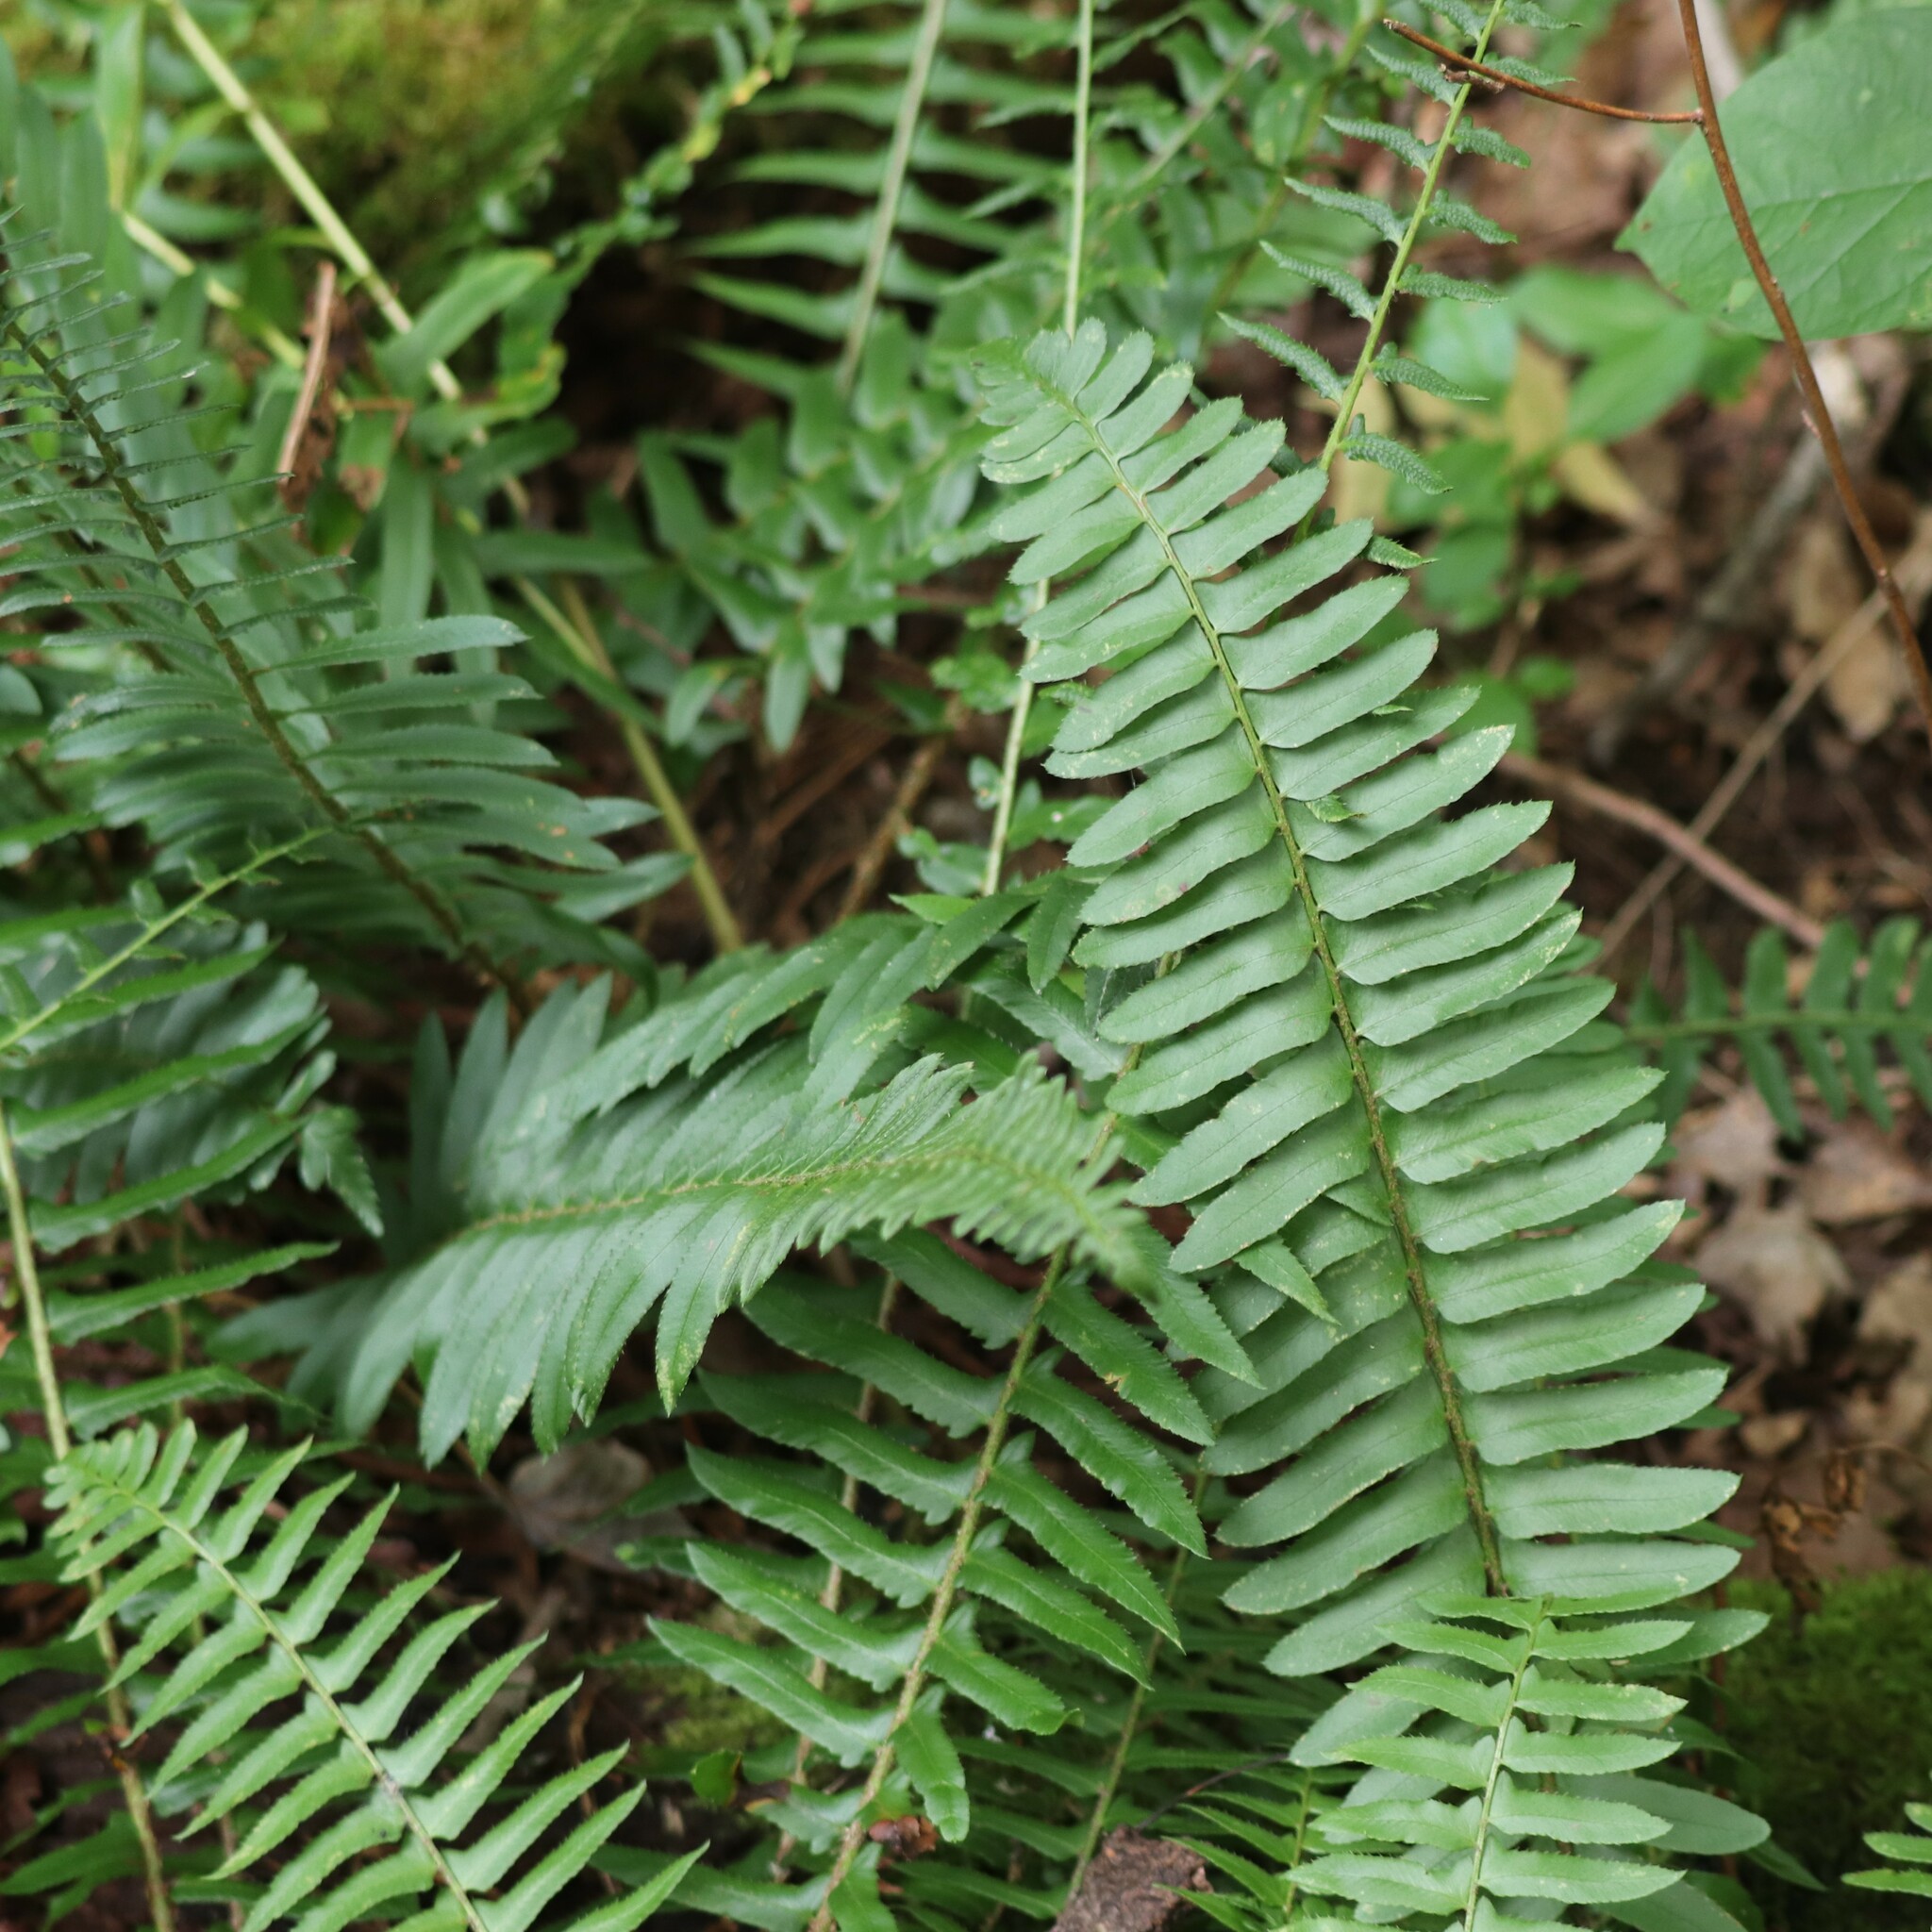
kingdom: Plantae
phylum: Tracheophyta
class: Polypodiopsida
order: Polypodiales
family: Dryopteridaceae
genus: Polystichum
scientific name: Polystichum acrostichoides
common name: Christmas fern
